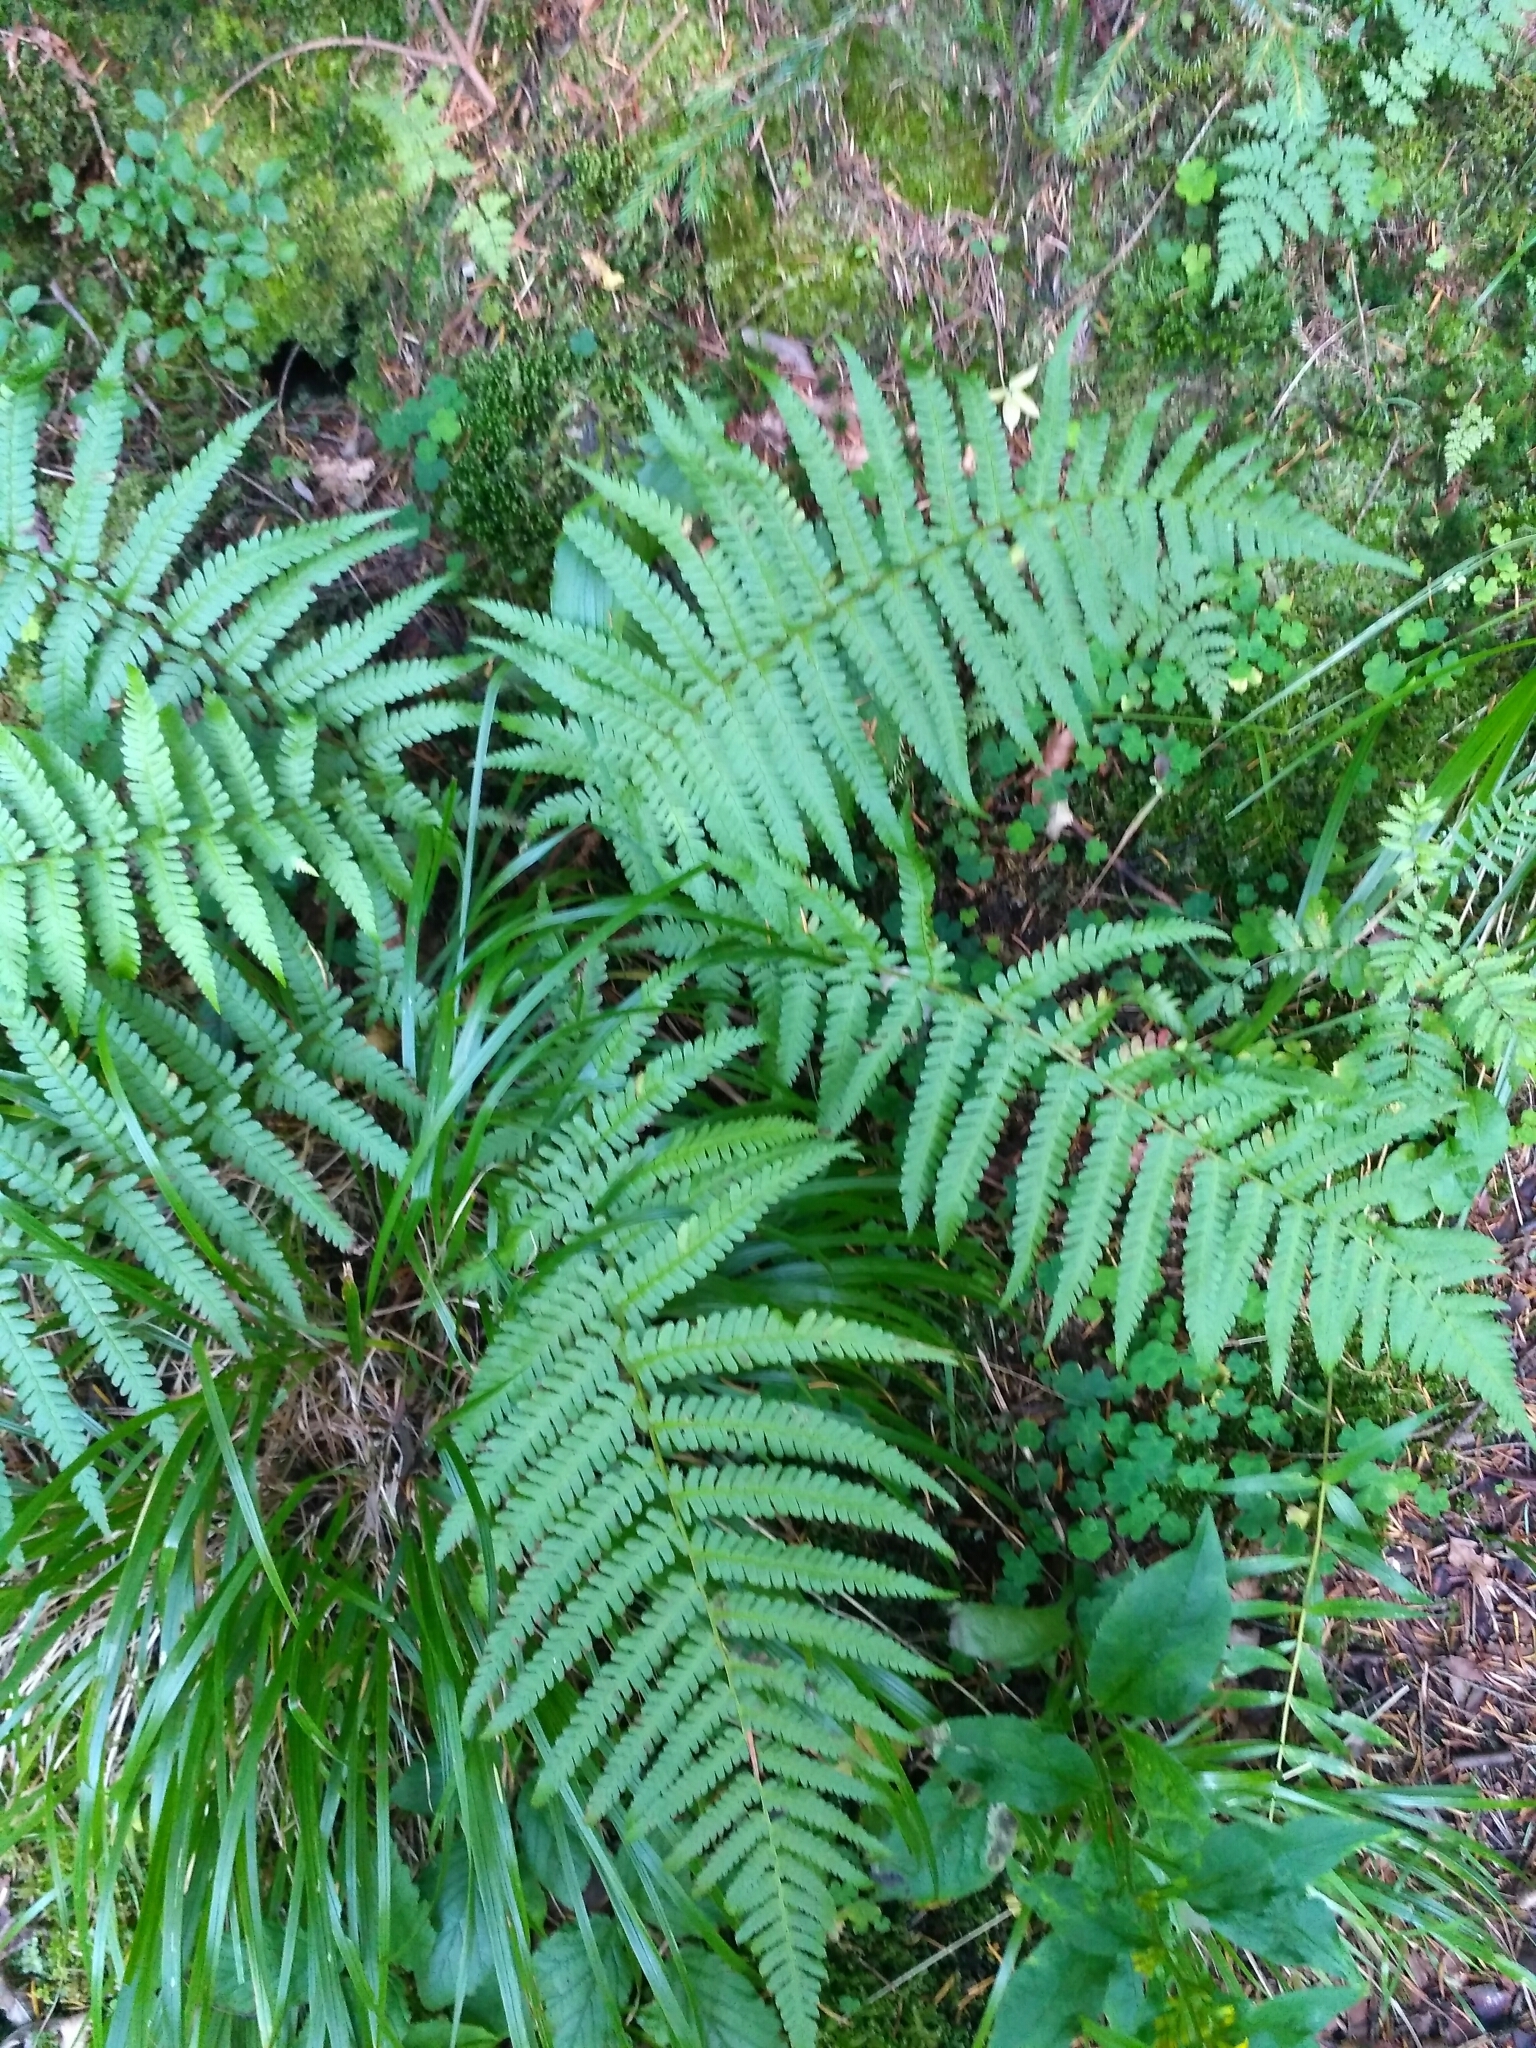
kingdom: Plantae
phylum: Tracheophyta
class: Polypodiopsida
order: Polypodiales
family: Dryopteridaceae
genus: Dryopteris
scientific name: Dryopteris filix-mas
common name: Male fern
